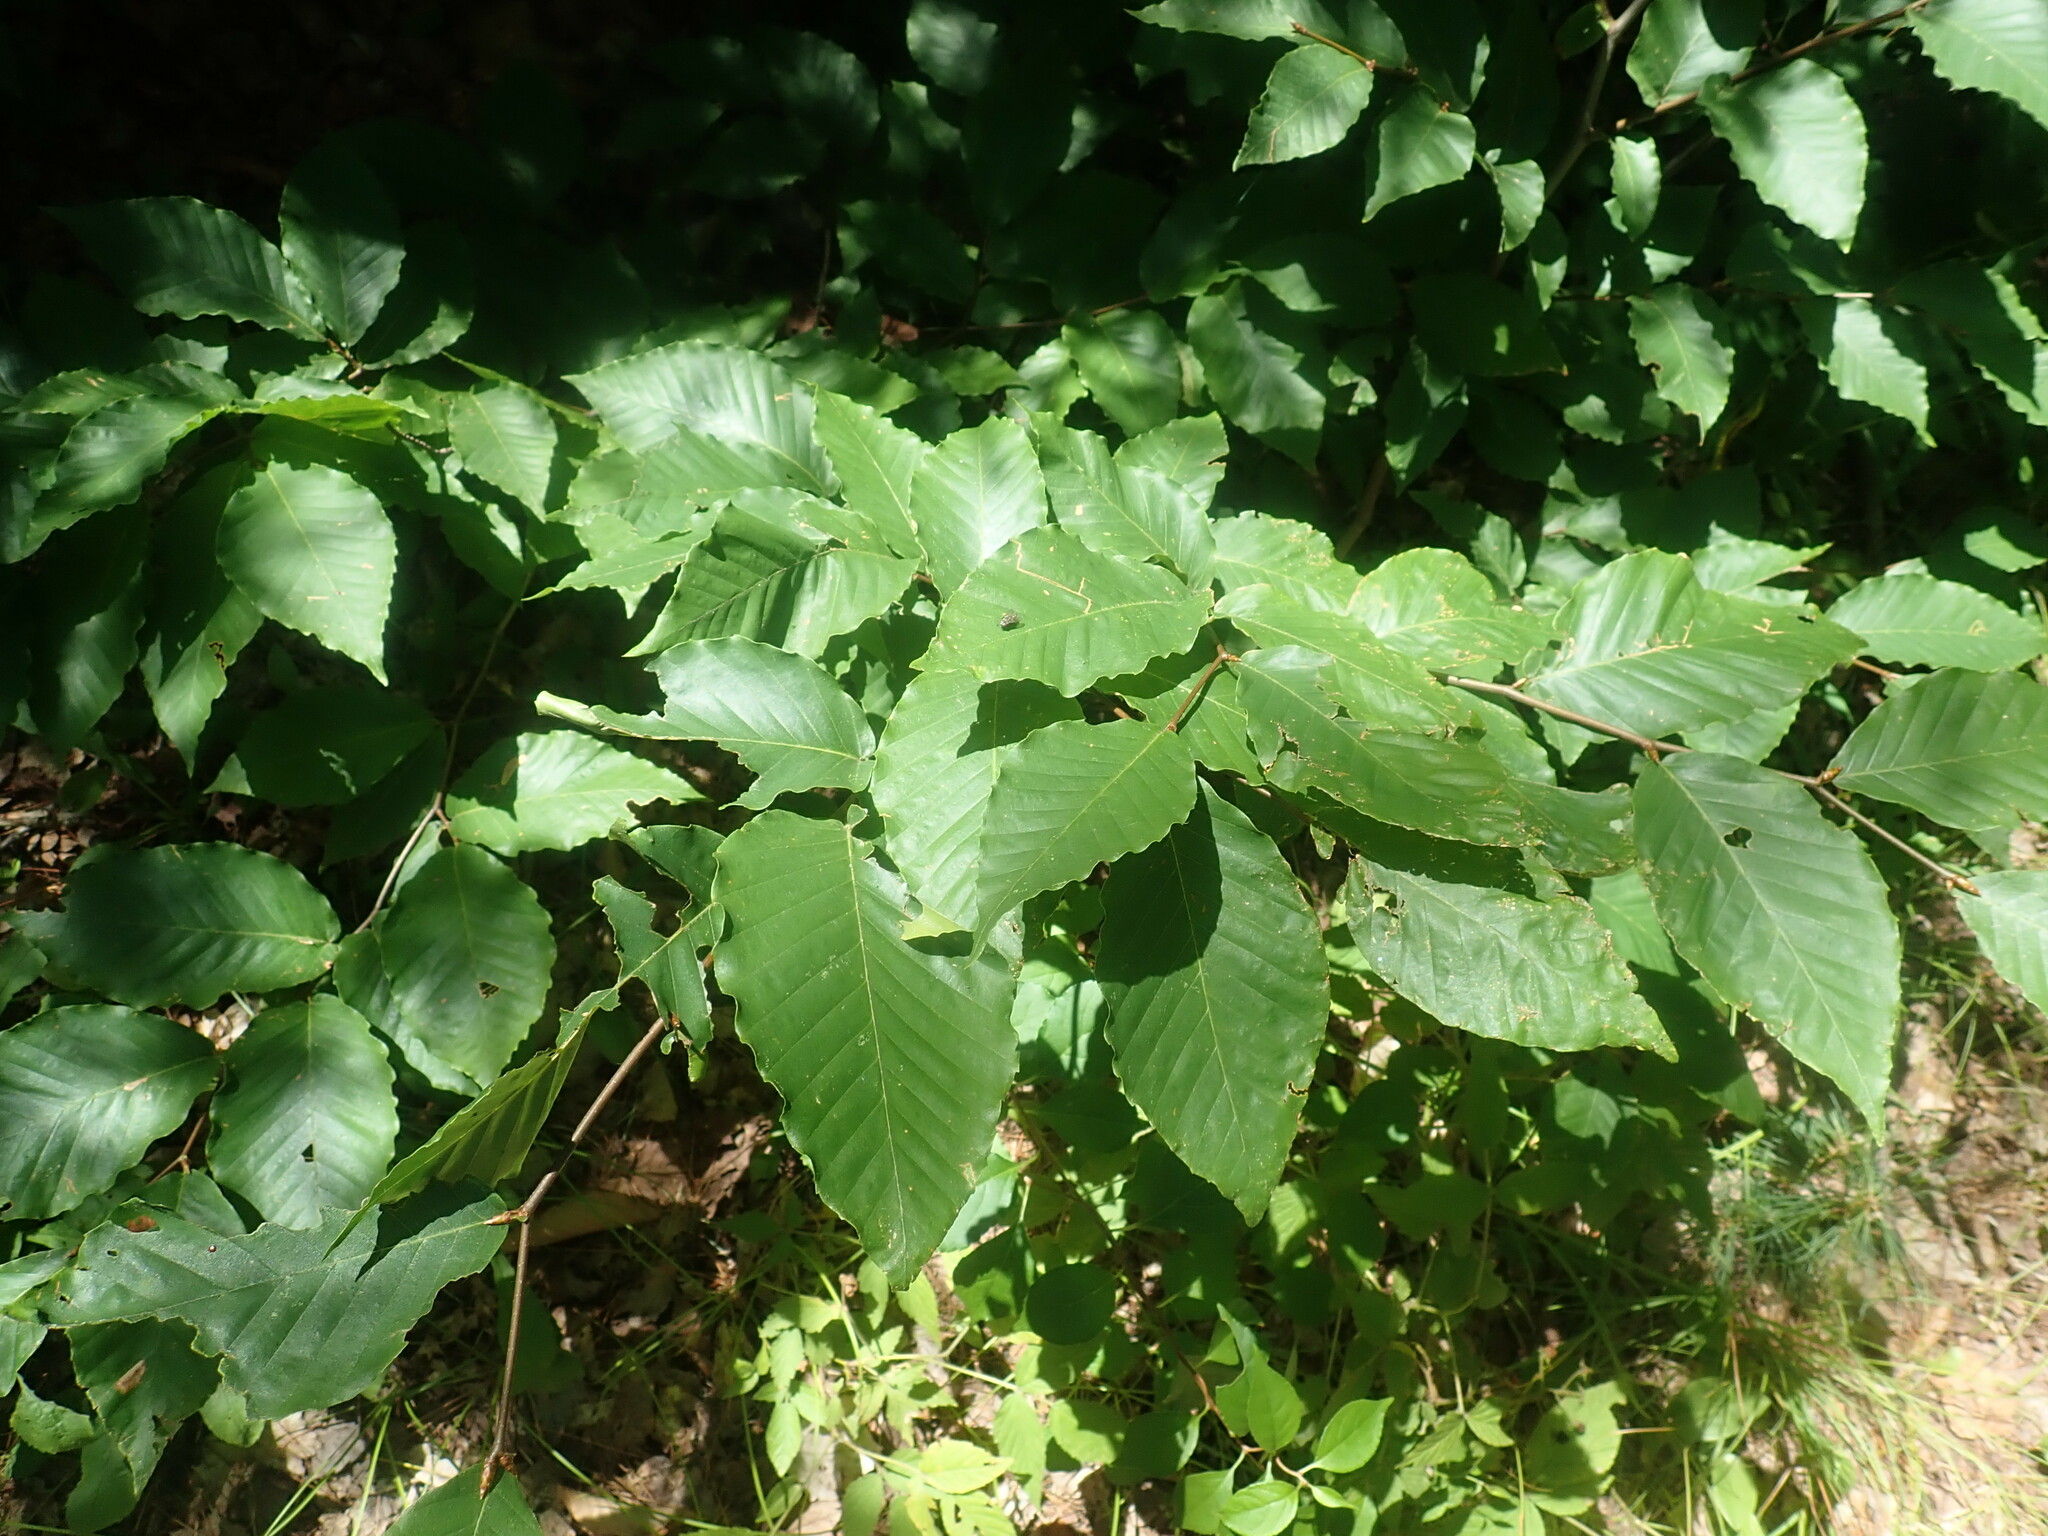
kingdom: Plantae
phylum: Tracheophyta
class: Magnoliopsida
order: Fagales
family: Fagaceae
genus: Fagus
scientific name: Fagus grandifolia
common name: American beech
